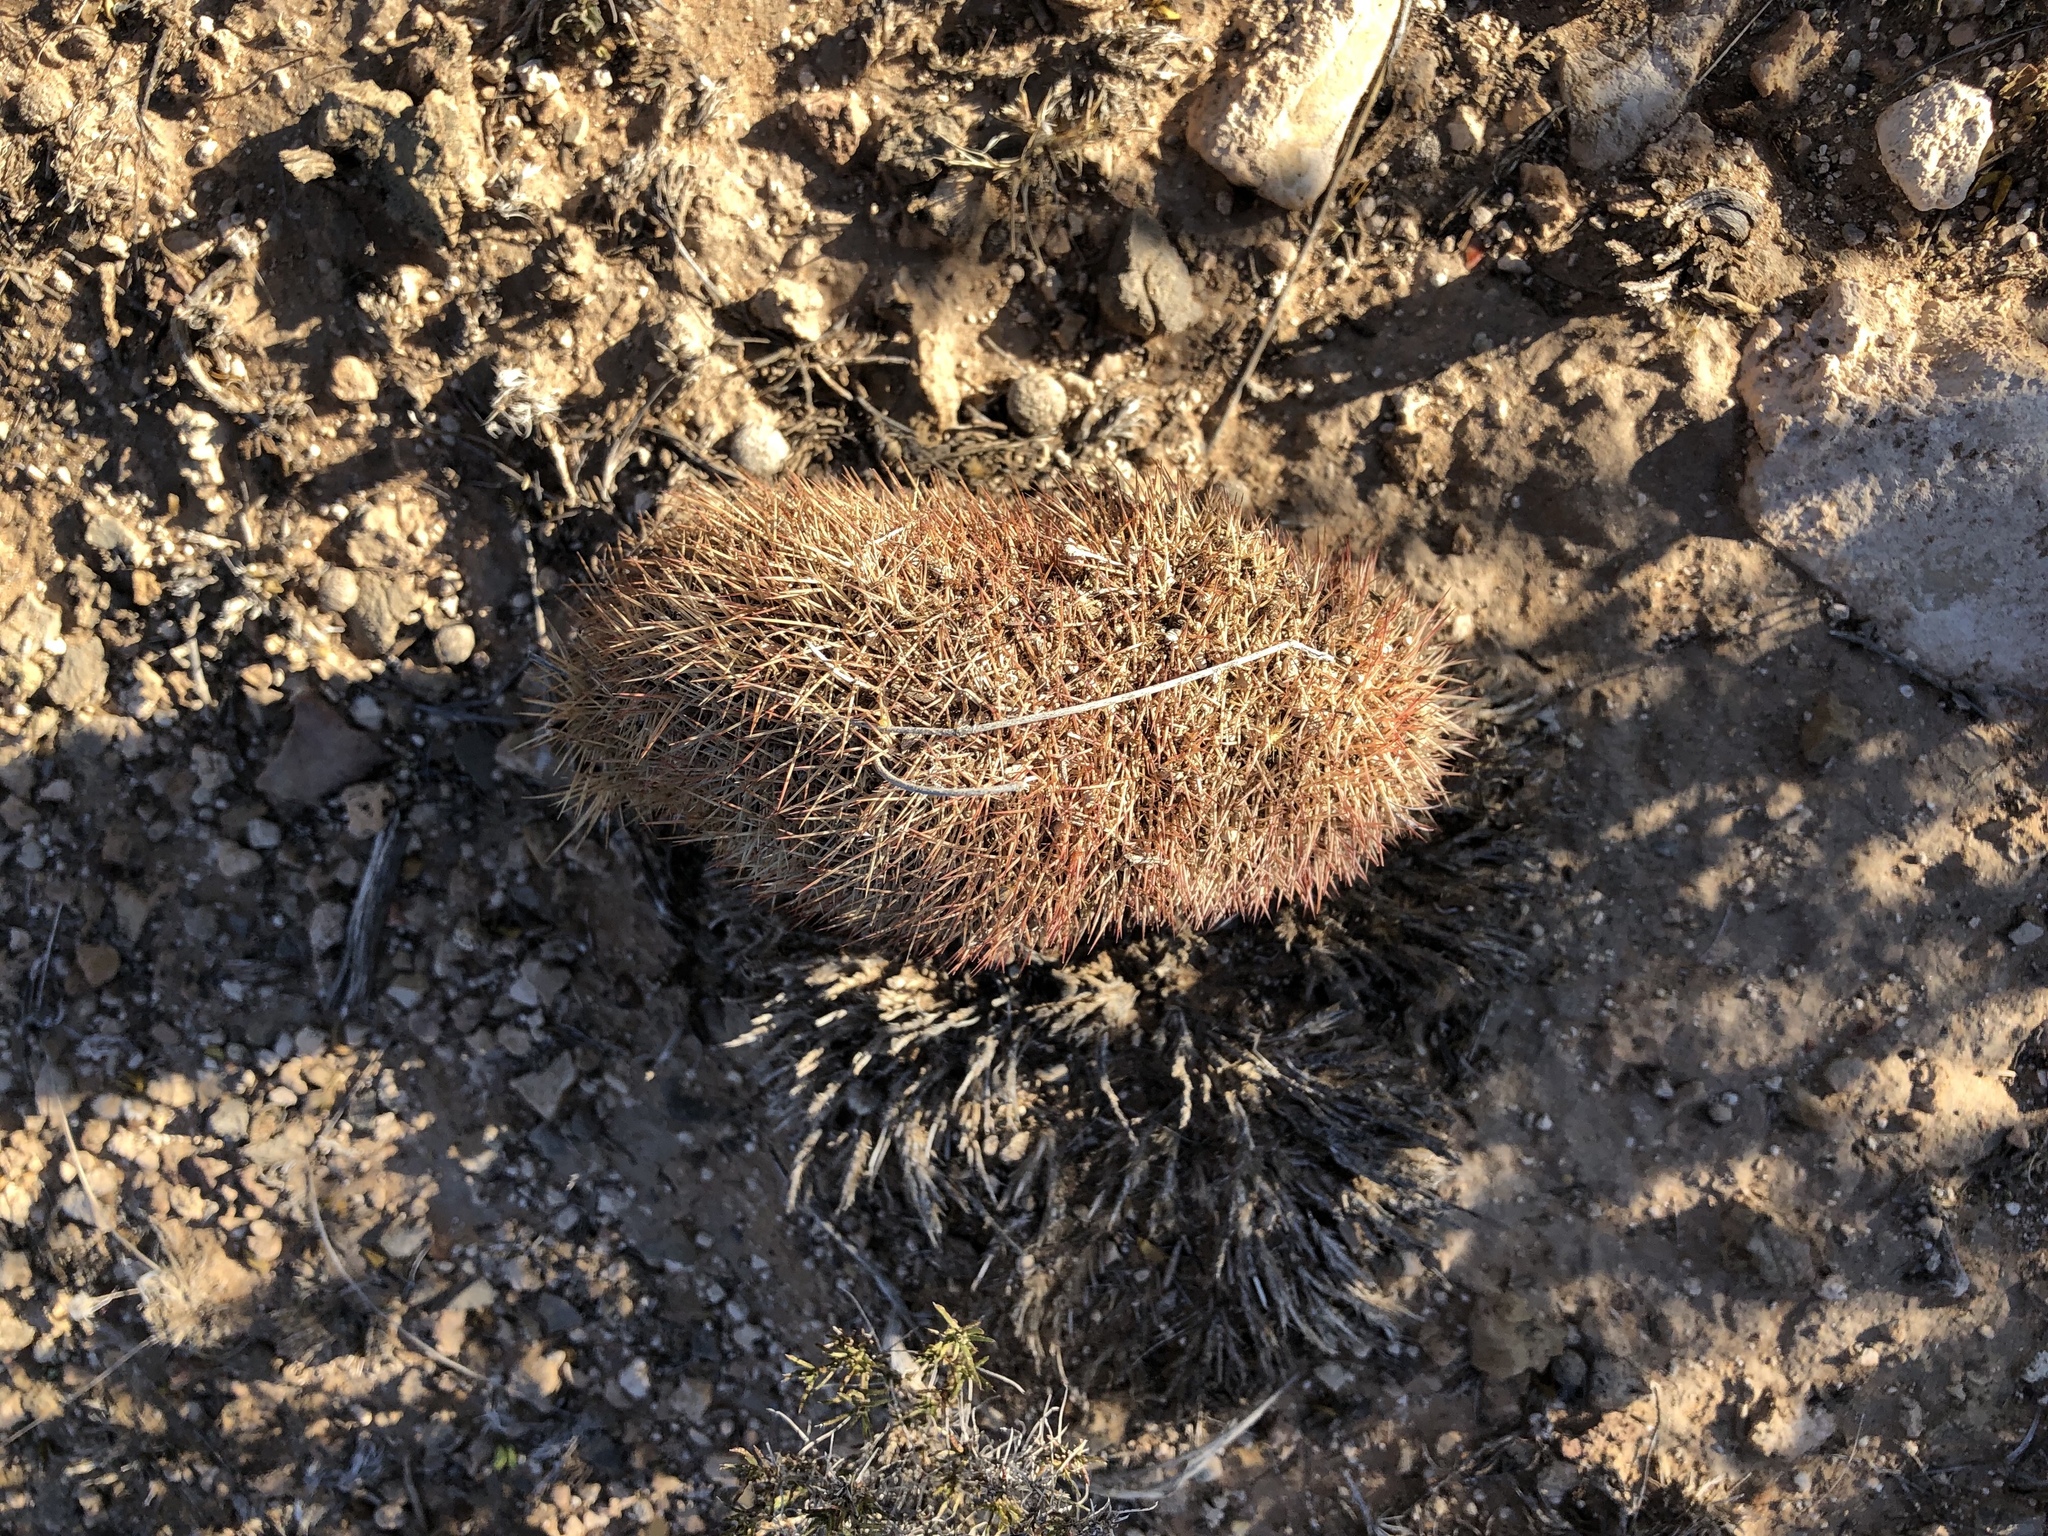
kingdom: Plantae
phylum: Tracheophyta
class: Magnoliopsida
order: Caryophyllales
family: Cactaceae
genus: Echinocereus
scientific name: Echinocereus dasyacanthus
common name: Spiny hedgehog cactus
